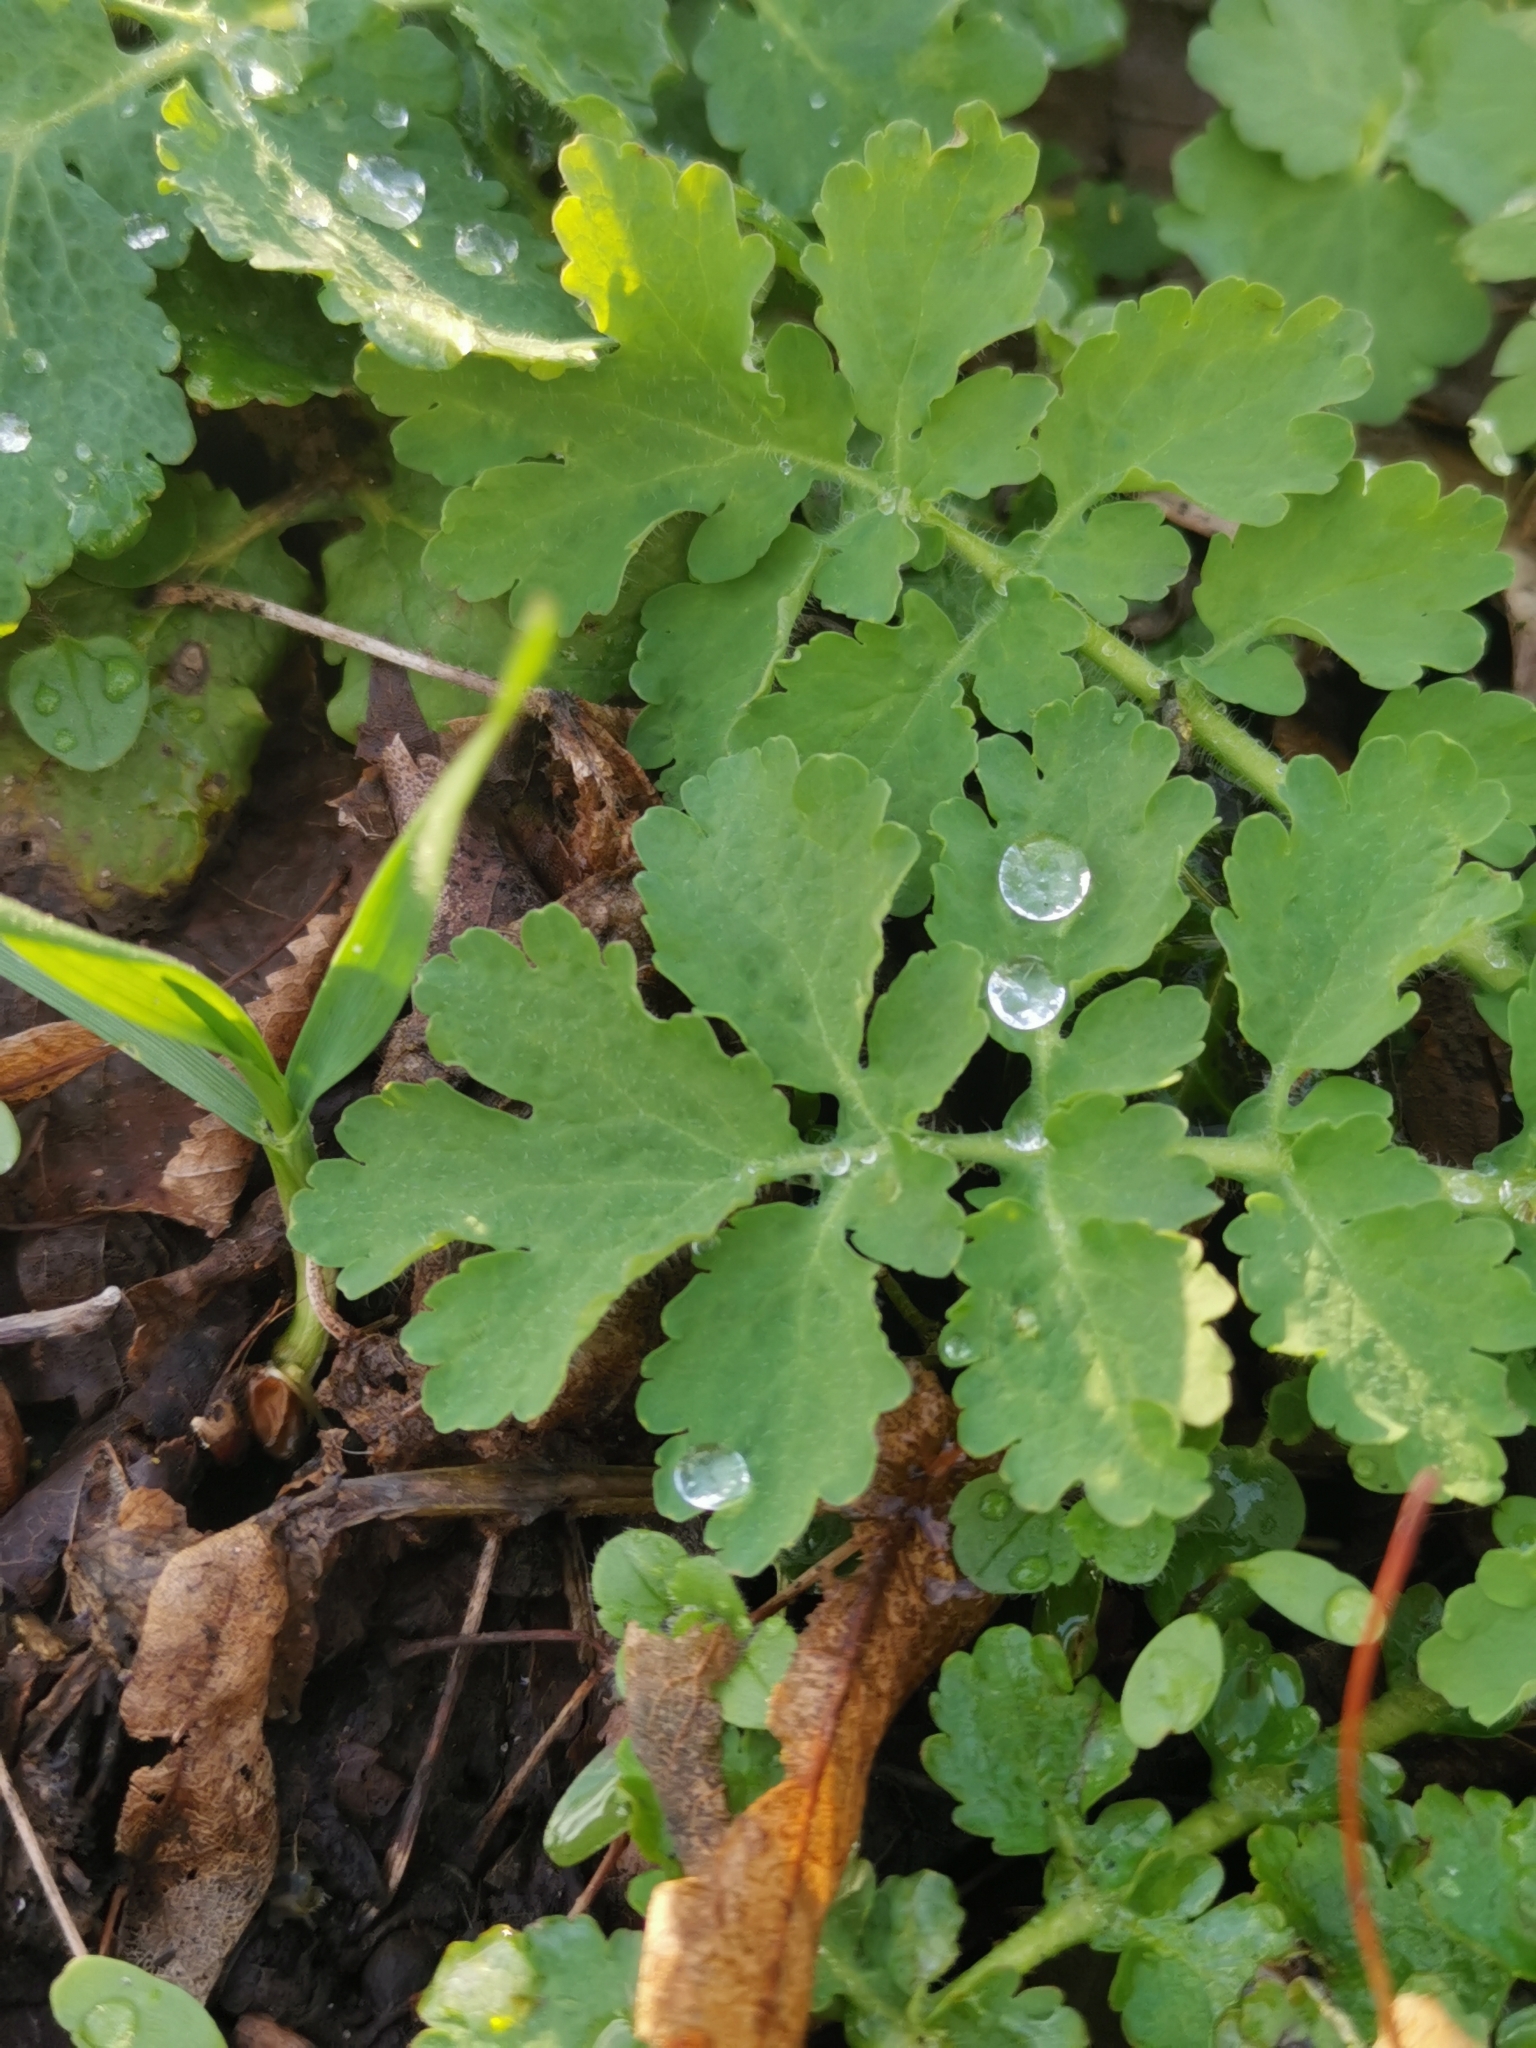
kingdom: Plantae
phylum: Tracheophyta
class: Magnoliopsida
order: Ranunculales
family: Papaveraceae
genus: Chelidonium
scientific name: Chelidonium majus
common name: Greater celandine
